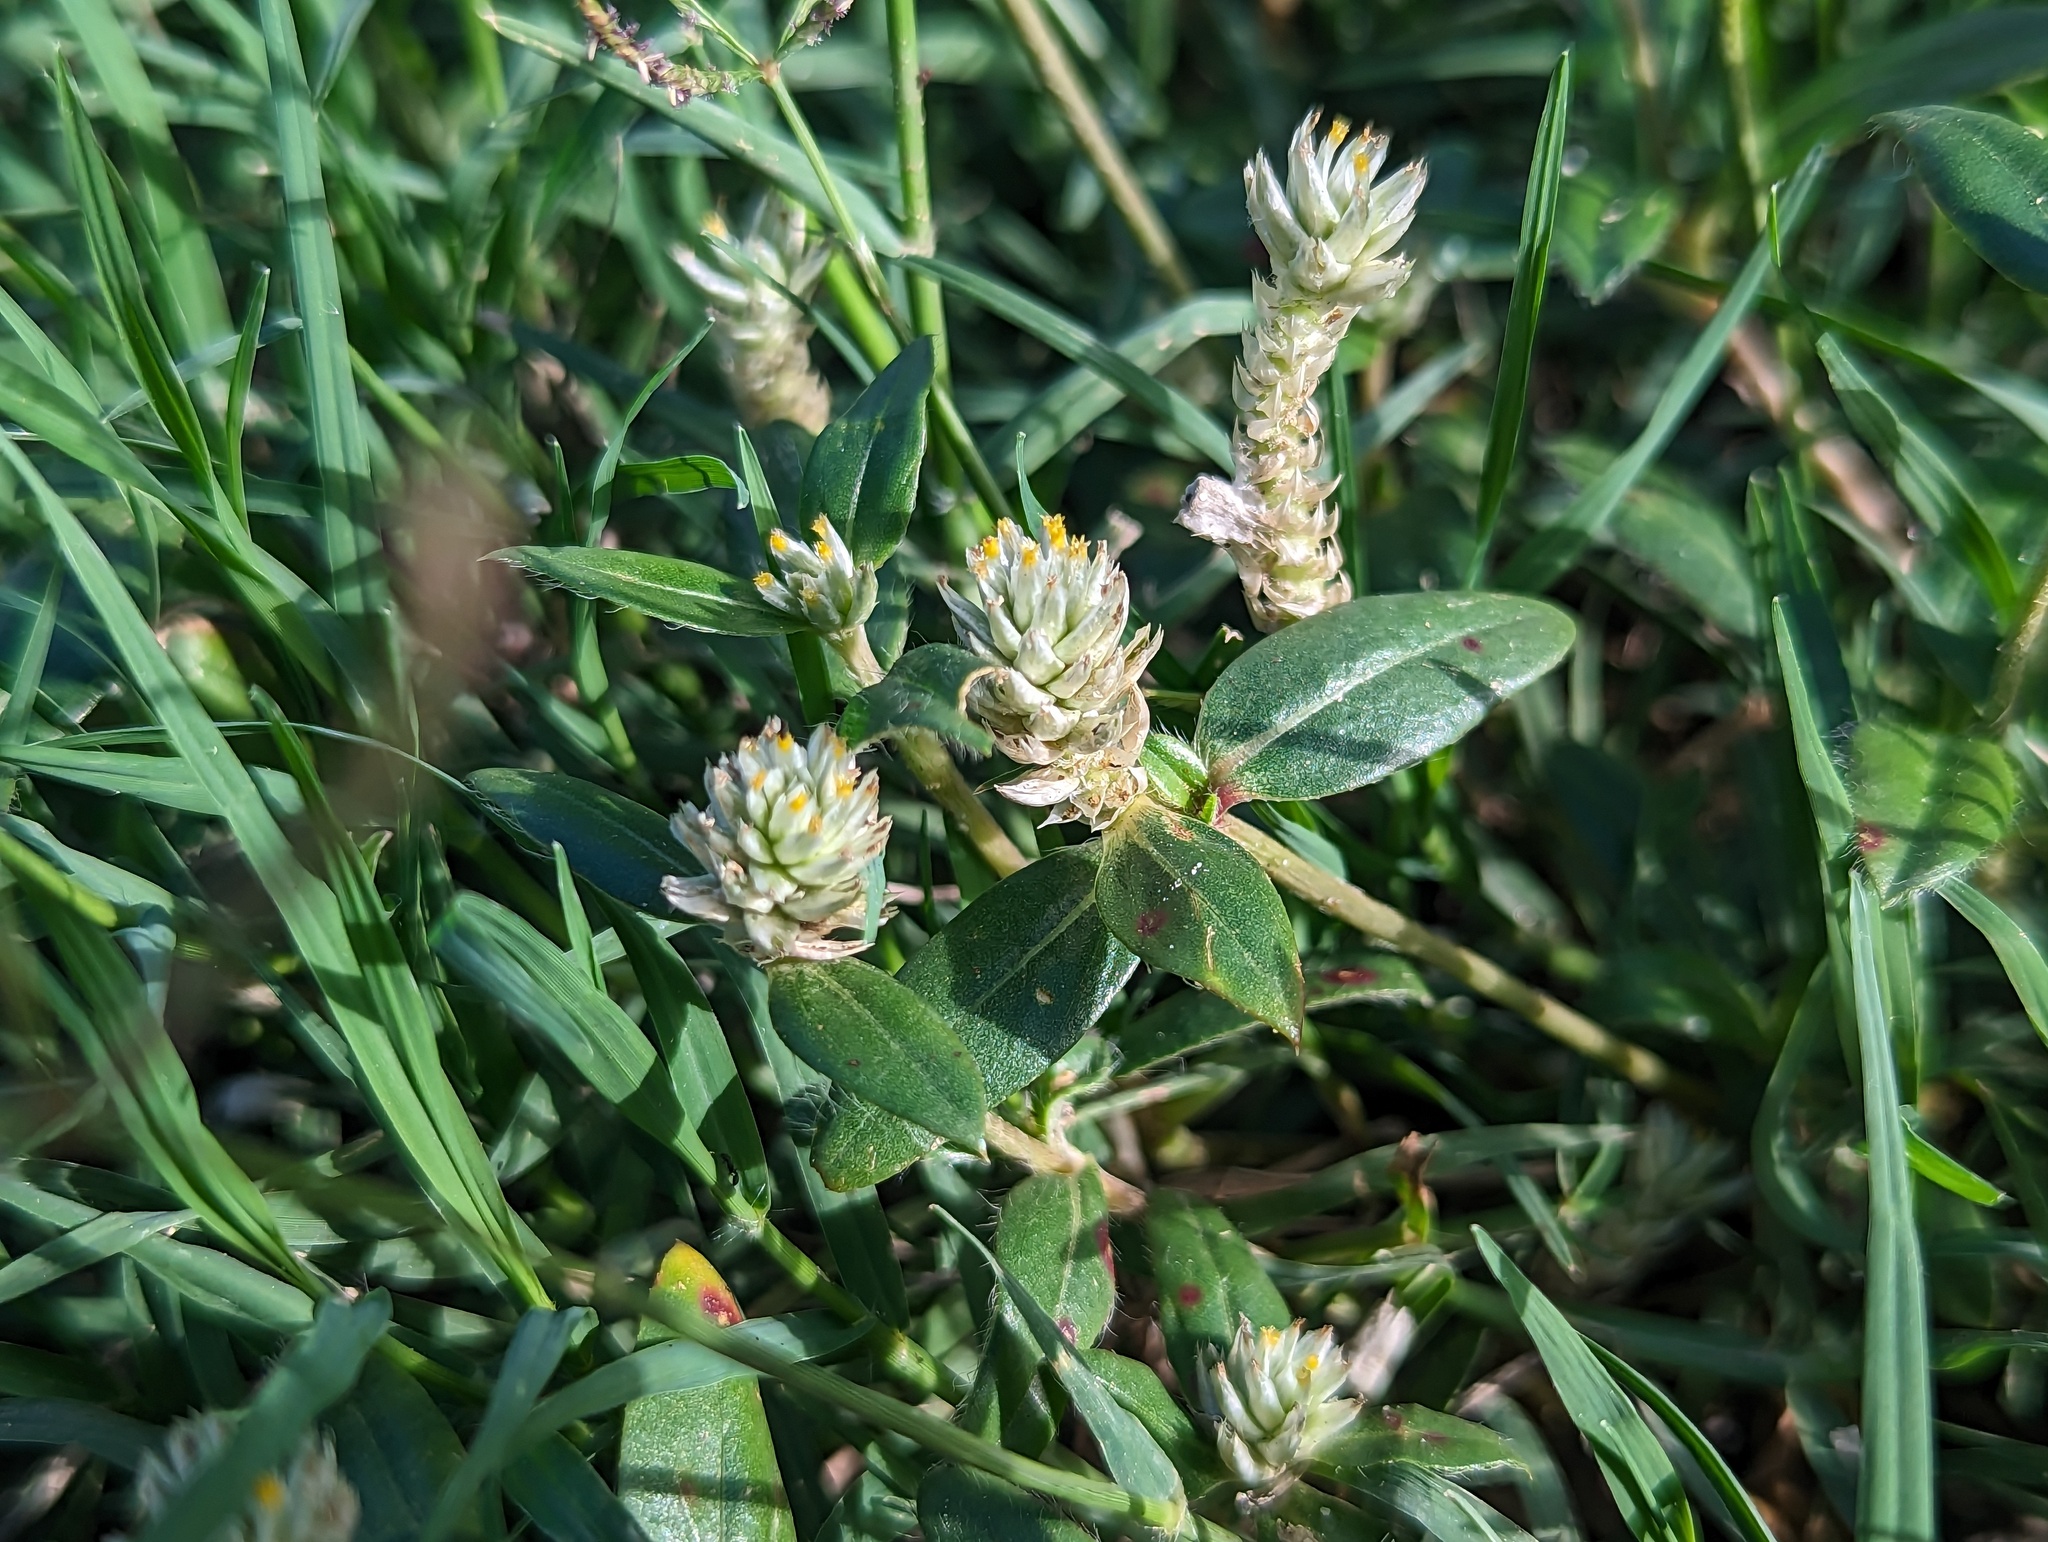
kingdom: Plantae
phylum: Tracheophyta
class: Magnoliopsida
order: Caryophyllales
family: Amaranthaceae
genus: Gomphrena
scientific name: Gomphrena serrata
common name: Arrasa con todo
